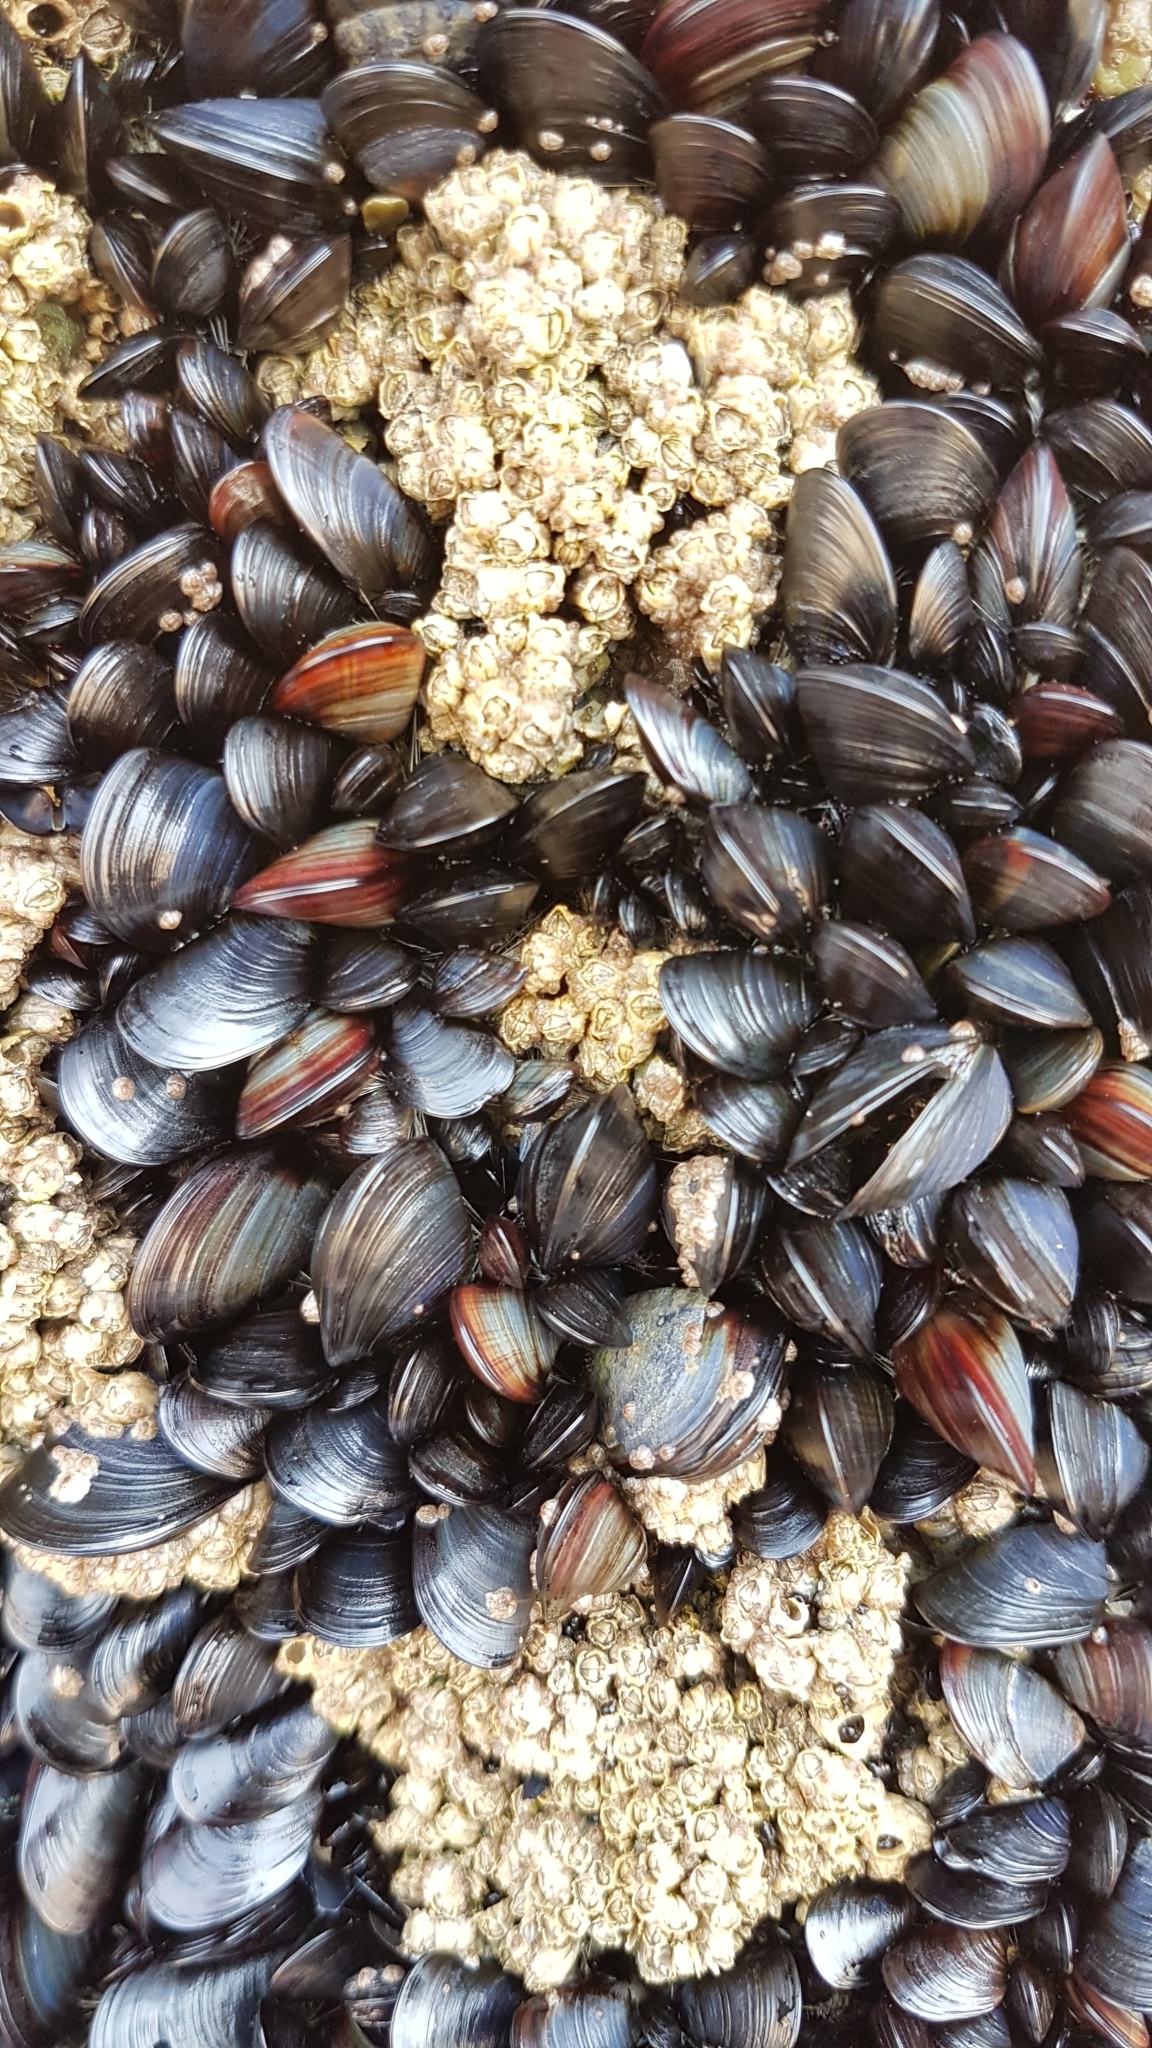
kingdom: Animalia
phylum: Mollusca
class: Bivalvia
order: Mytilida
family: Mytilidae
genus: Mytilus
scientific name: Mytilus edulis
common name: Blue mussel
